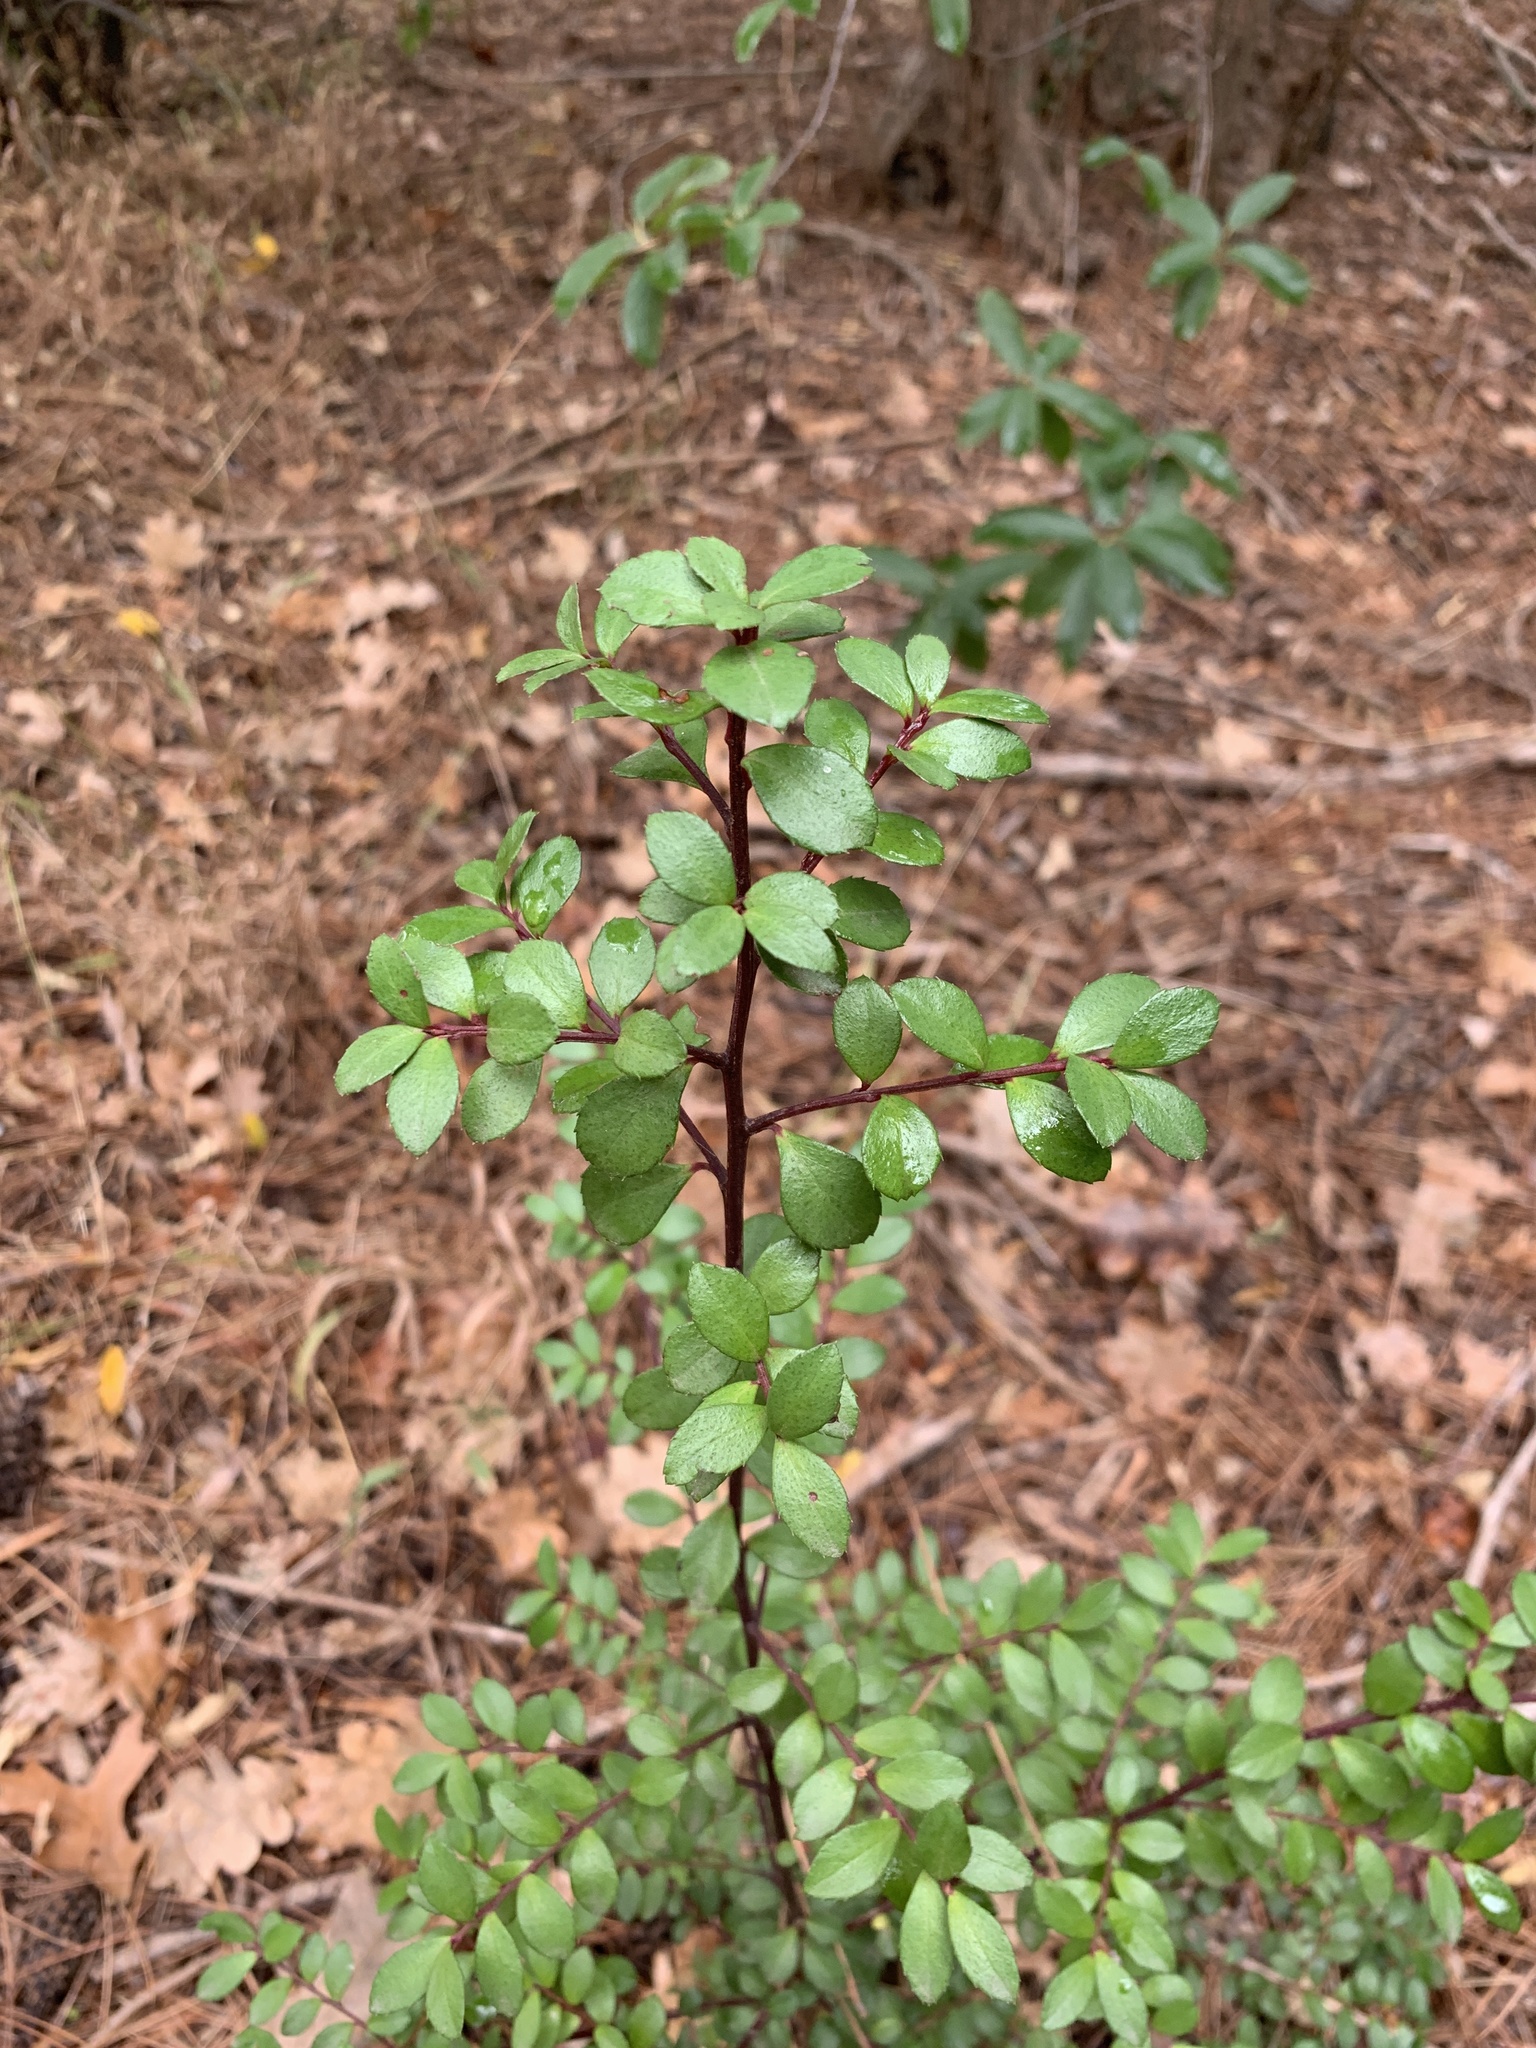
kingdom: Plantae
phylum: Tracheophyta
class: Magnoliopsida
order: Ericales
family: Primulaceae
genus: Myrsine
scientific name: Myrsine africana
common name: African-boxwood
